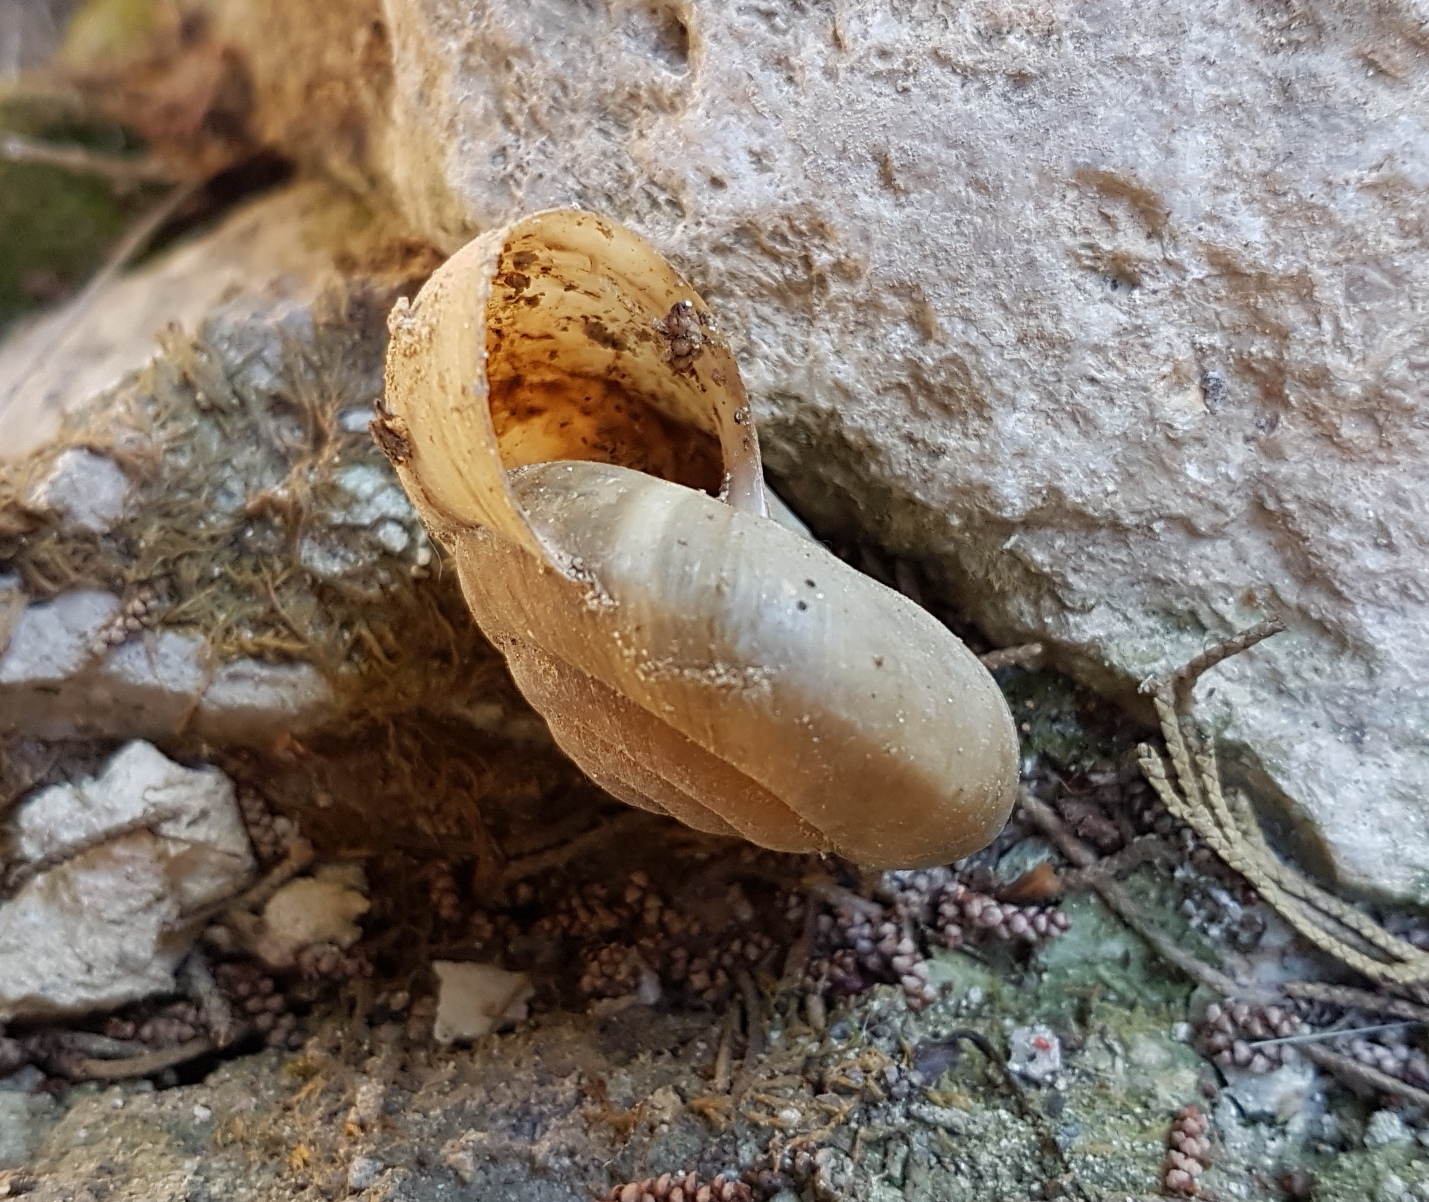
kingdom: Animalia
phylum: Mollusca
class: Gastropoda
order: Stylommatophora
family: Zonitidae
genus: Zonites
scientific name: Zonites algirus
